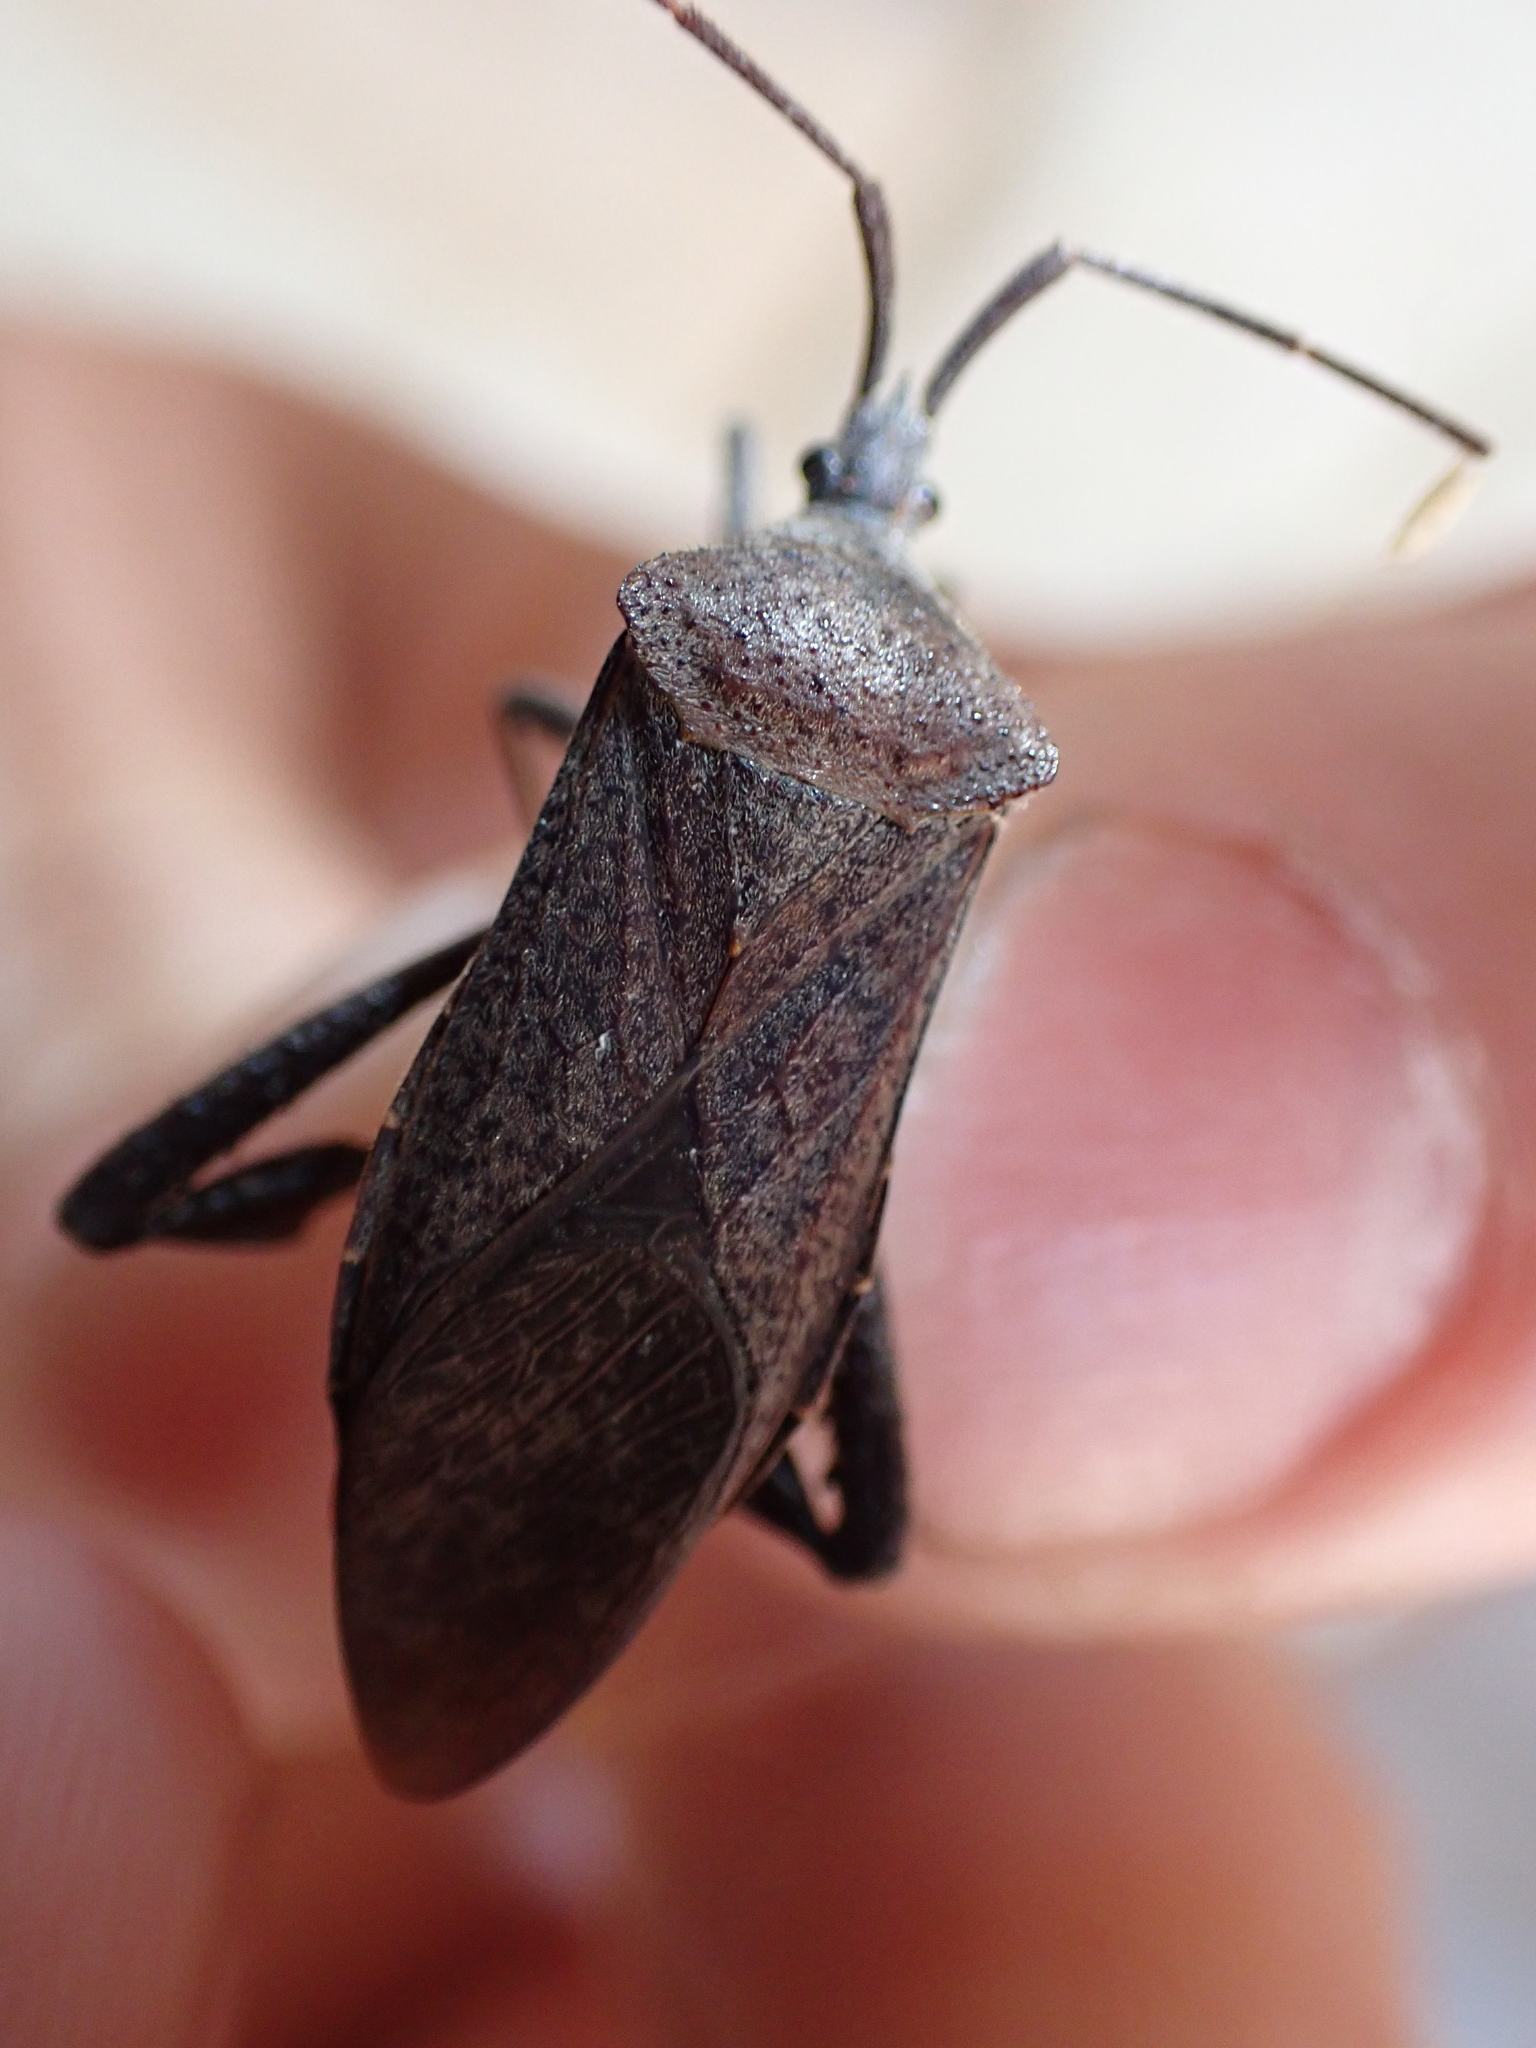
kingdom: Animalia
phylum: Arthropoda
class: Insecta
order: Hemiptera
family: Coreidae
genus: Acanthocephala
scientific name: Acanthocephala terminalis
